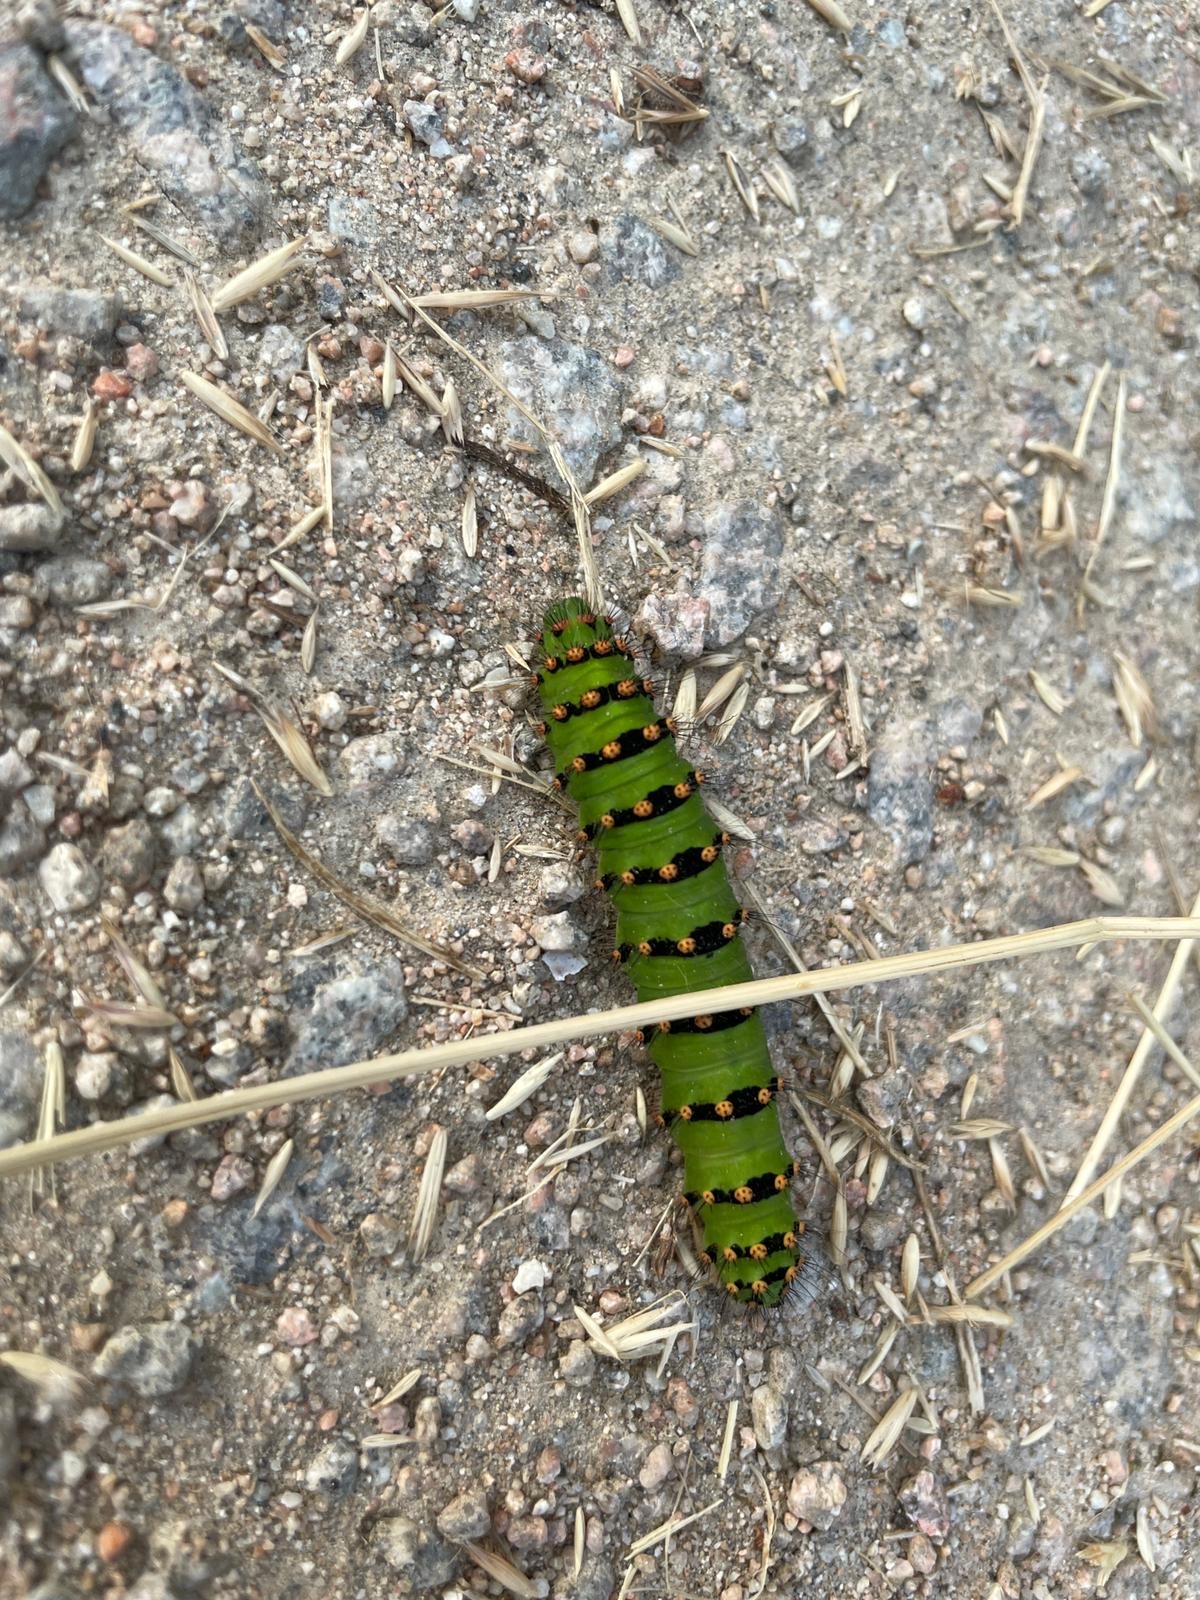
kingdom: Animalia
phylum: Arthropoda
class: Insecta
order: Lepidoptera
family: Saturniidae
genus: Saturnia
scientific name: Saturnia pavonia
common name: Emperor moth
